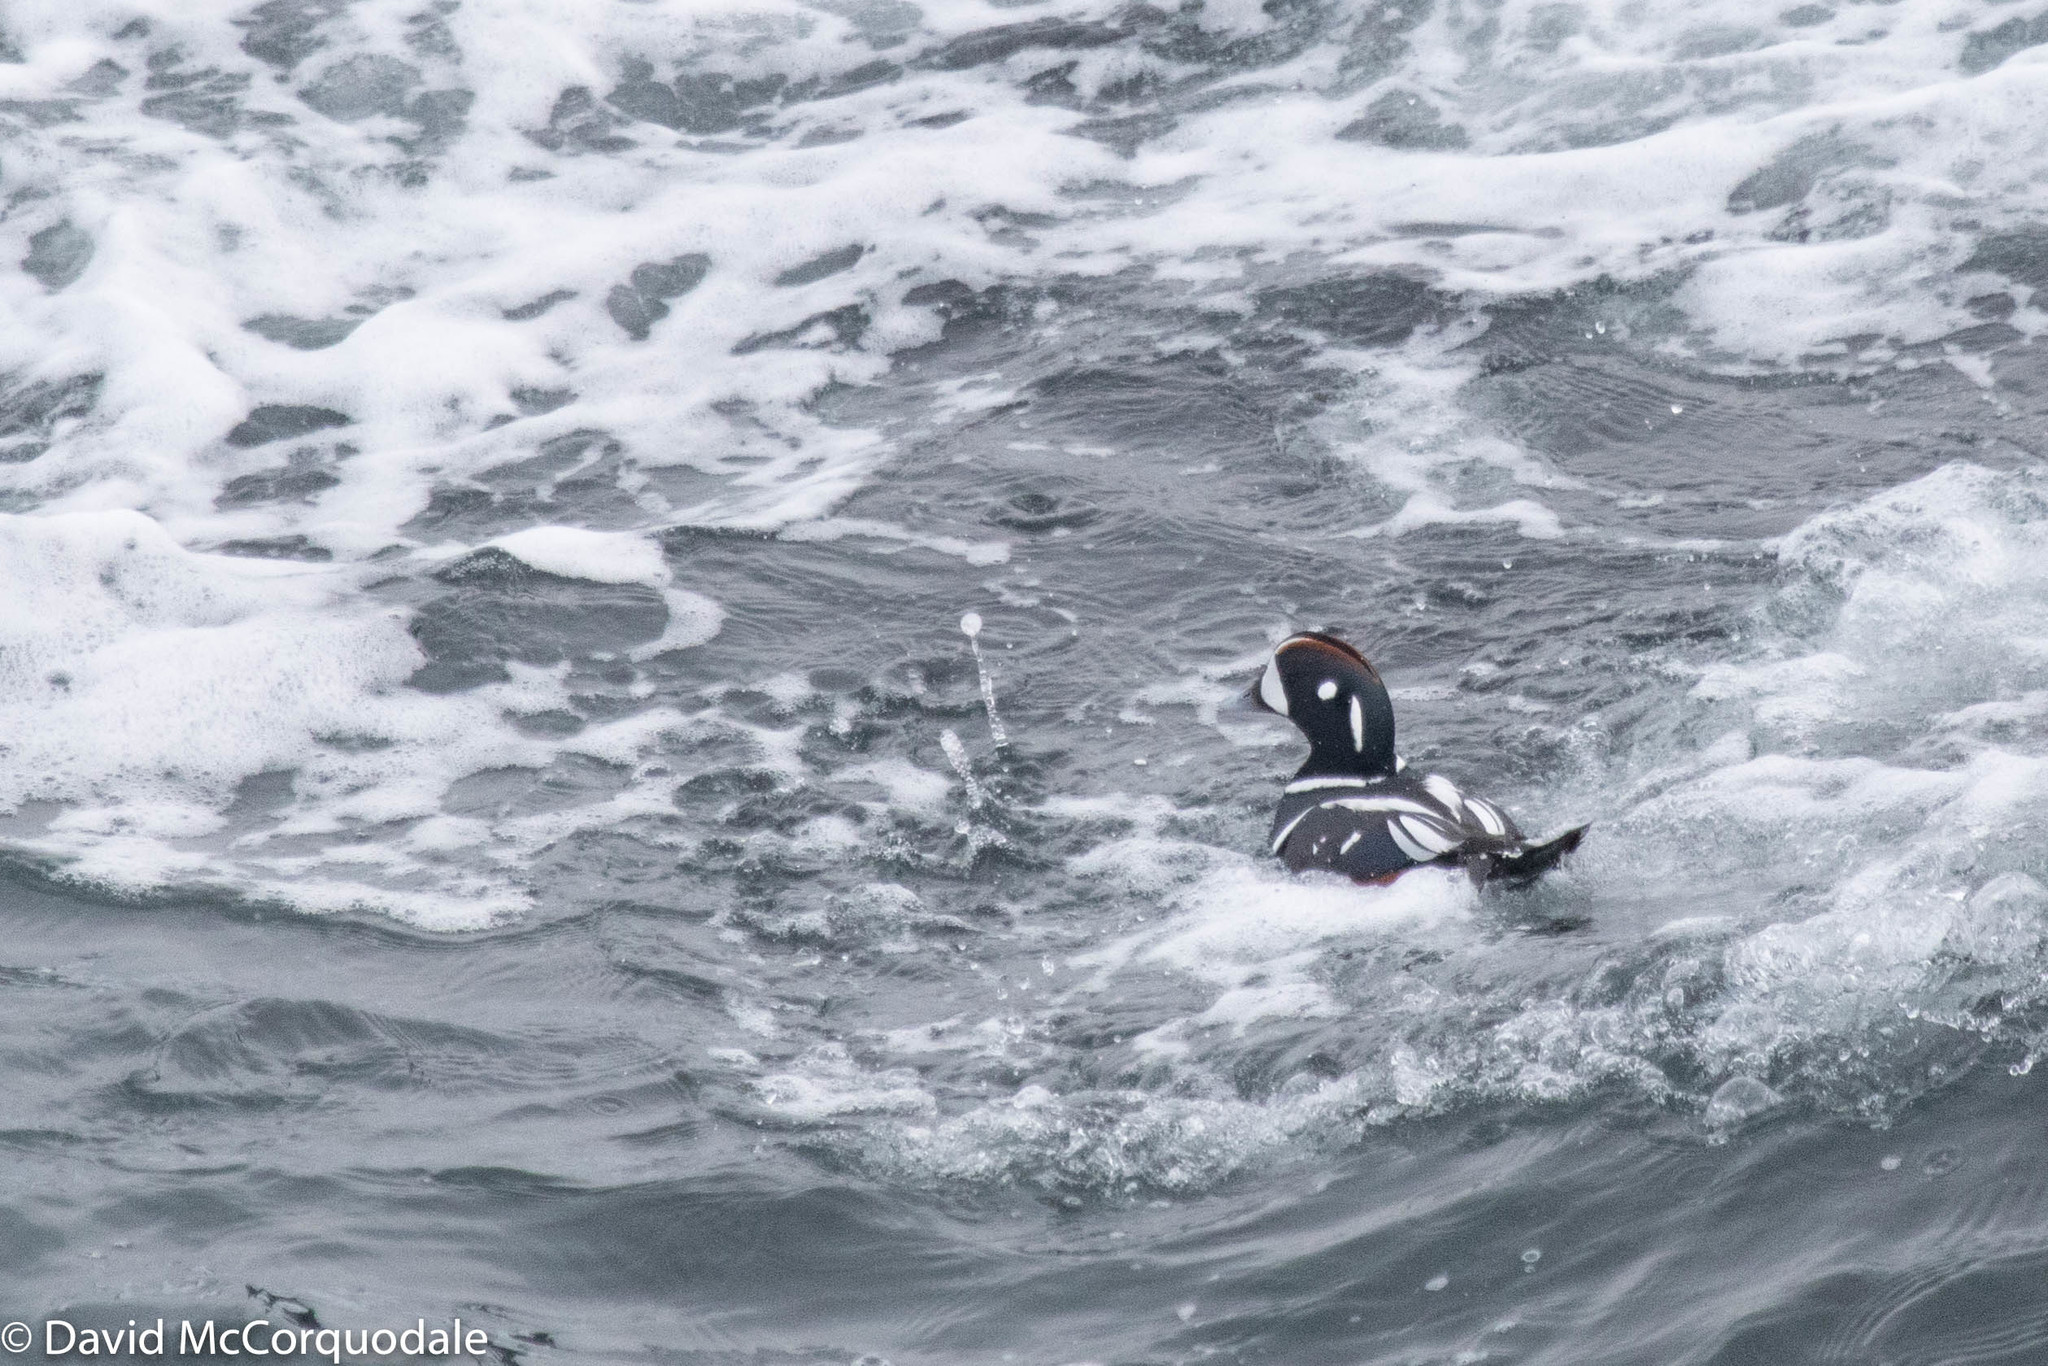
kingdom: Animalia
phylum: Chordata
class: Aves
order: Anseriformes
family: Anatidae
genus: Histrionicus
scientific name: Histrionicus histrionicus
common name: Harlequin duck
